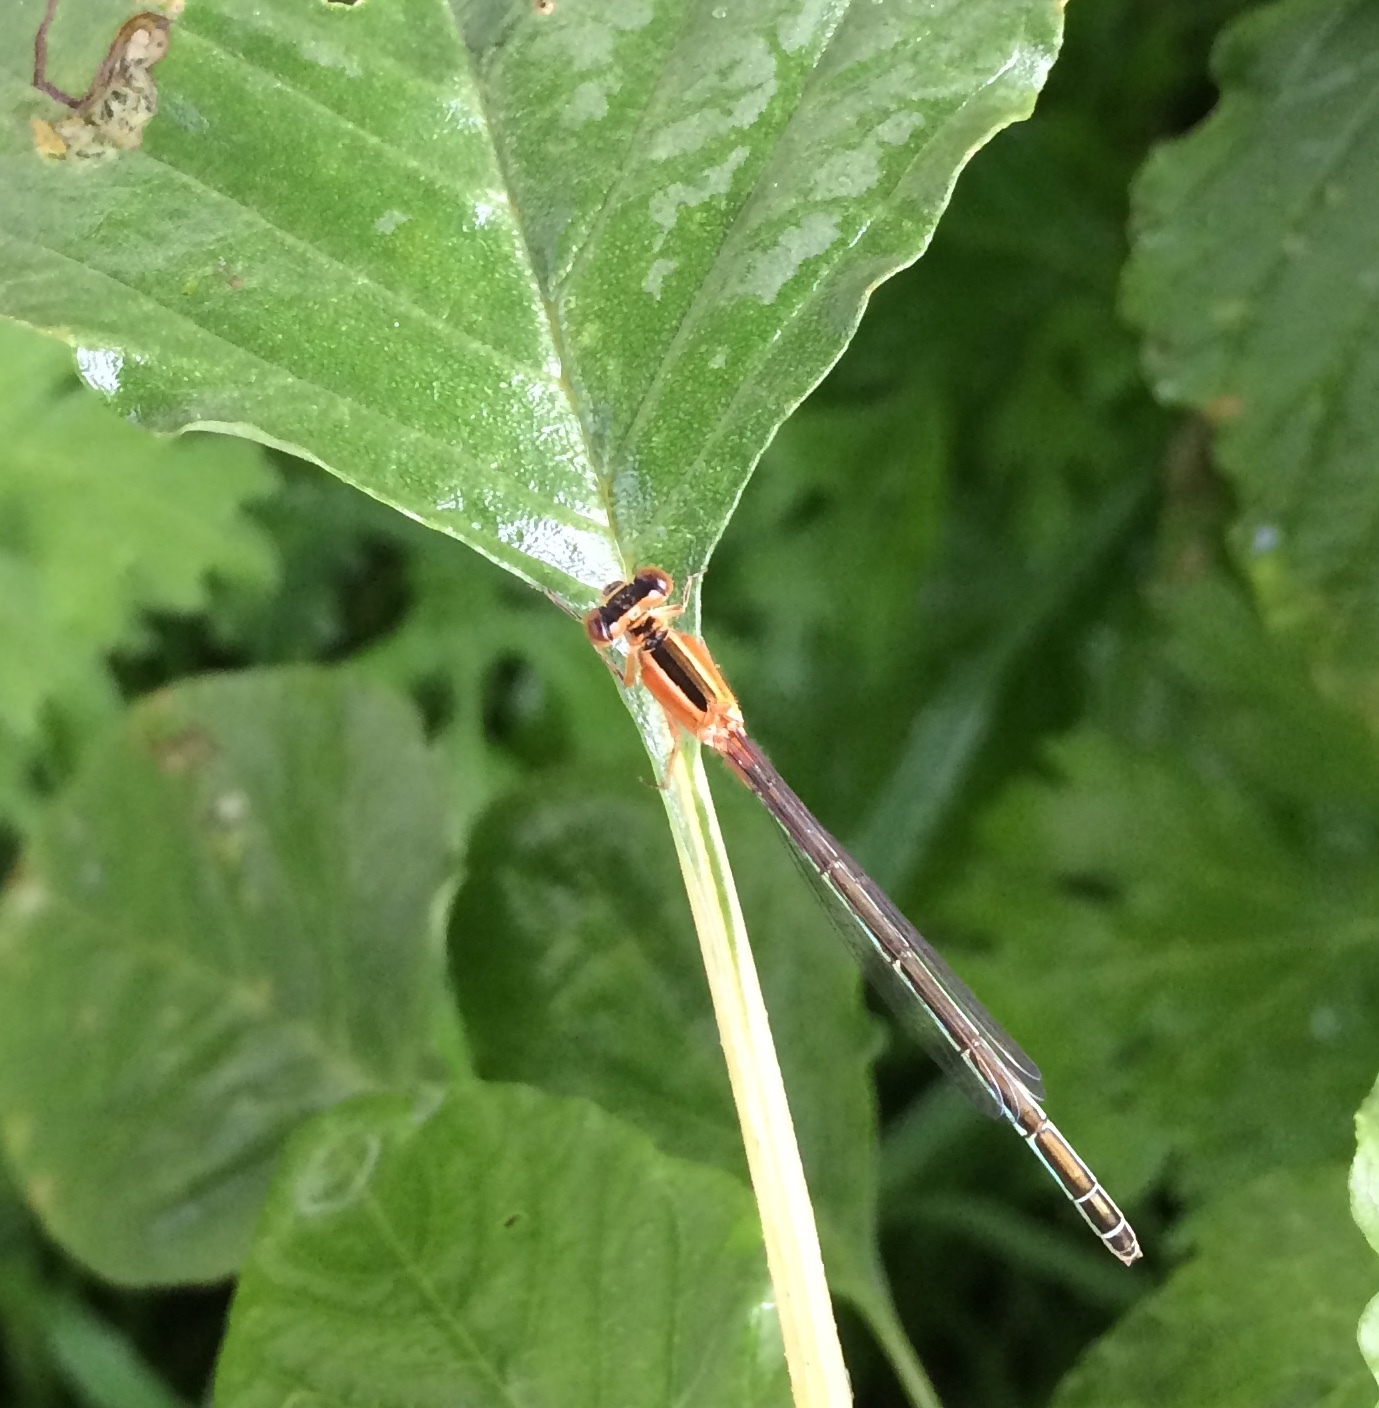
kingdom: Animalia
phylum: Arthropoda
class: Insecta
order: Odonata
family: Coenagrionidae
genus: Ischnura
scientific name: Ischnura senegalensis
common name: Tropical bluetail
